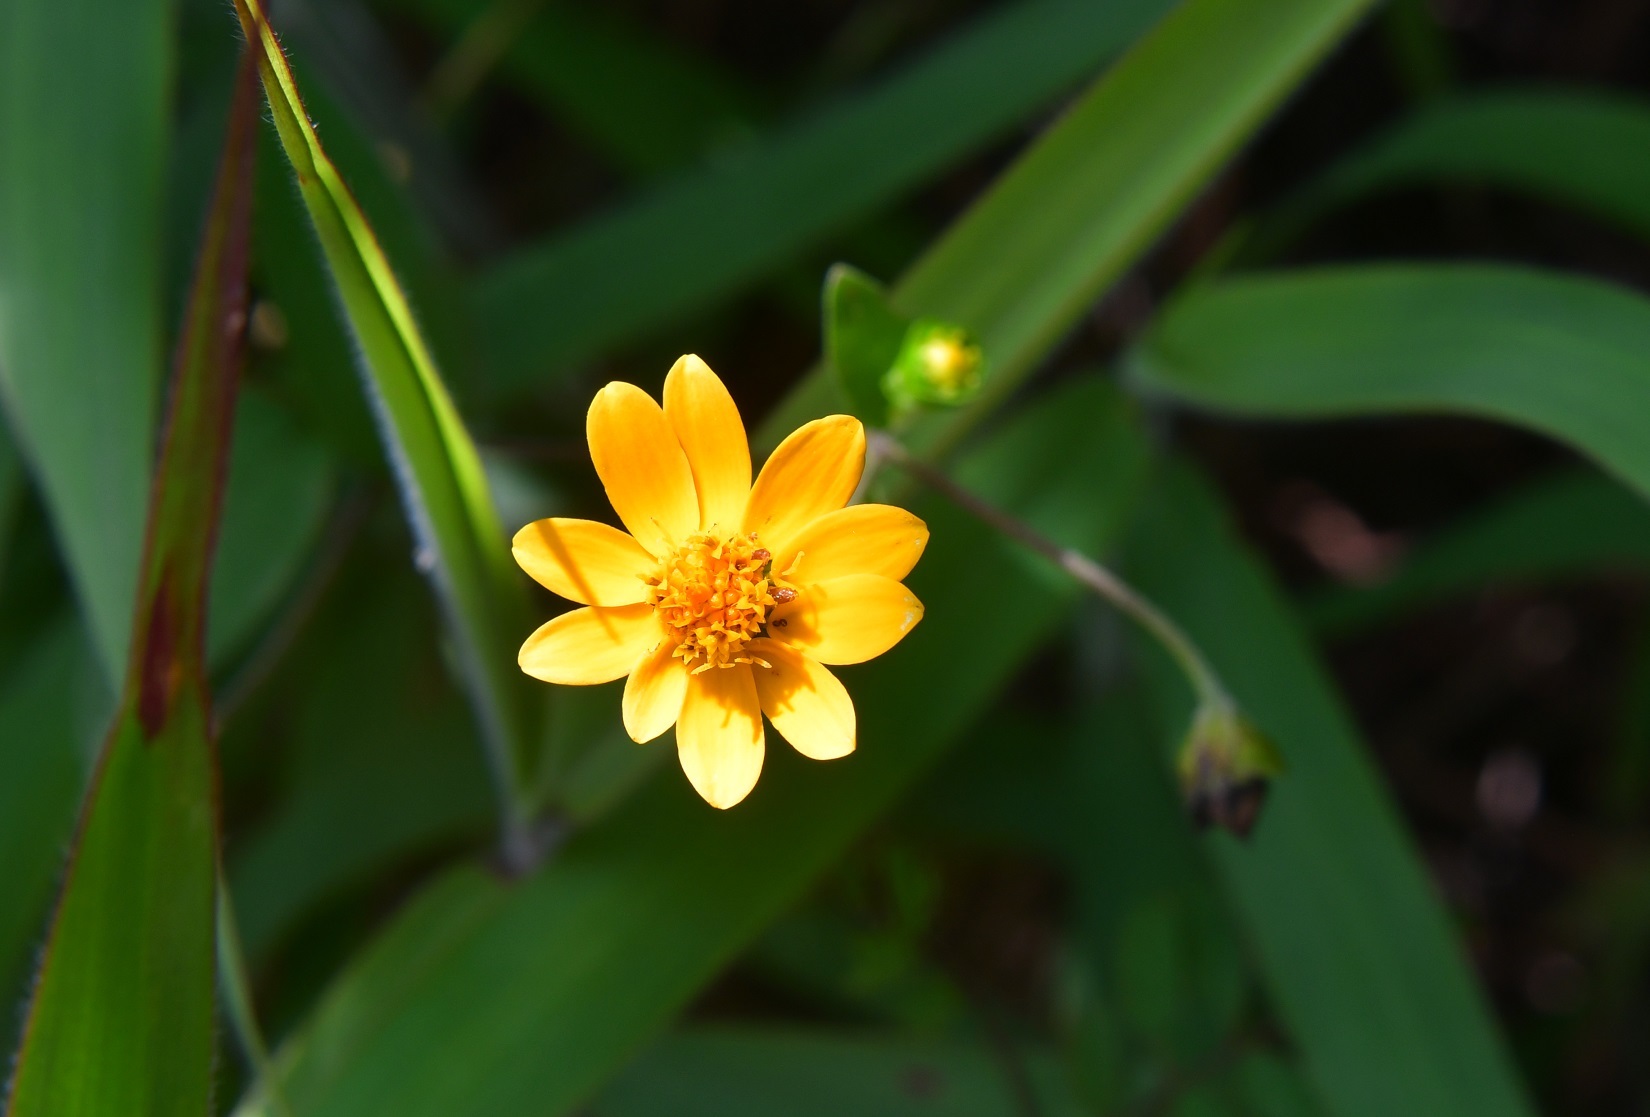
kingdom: Plantae
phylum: Tracheophyta
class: Magnoliopsida
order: Asterales
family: Asteraceae
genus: Melampodium
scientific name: Melampodium divaricatum
